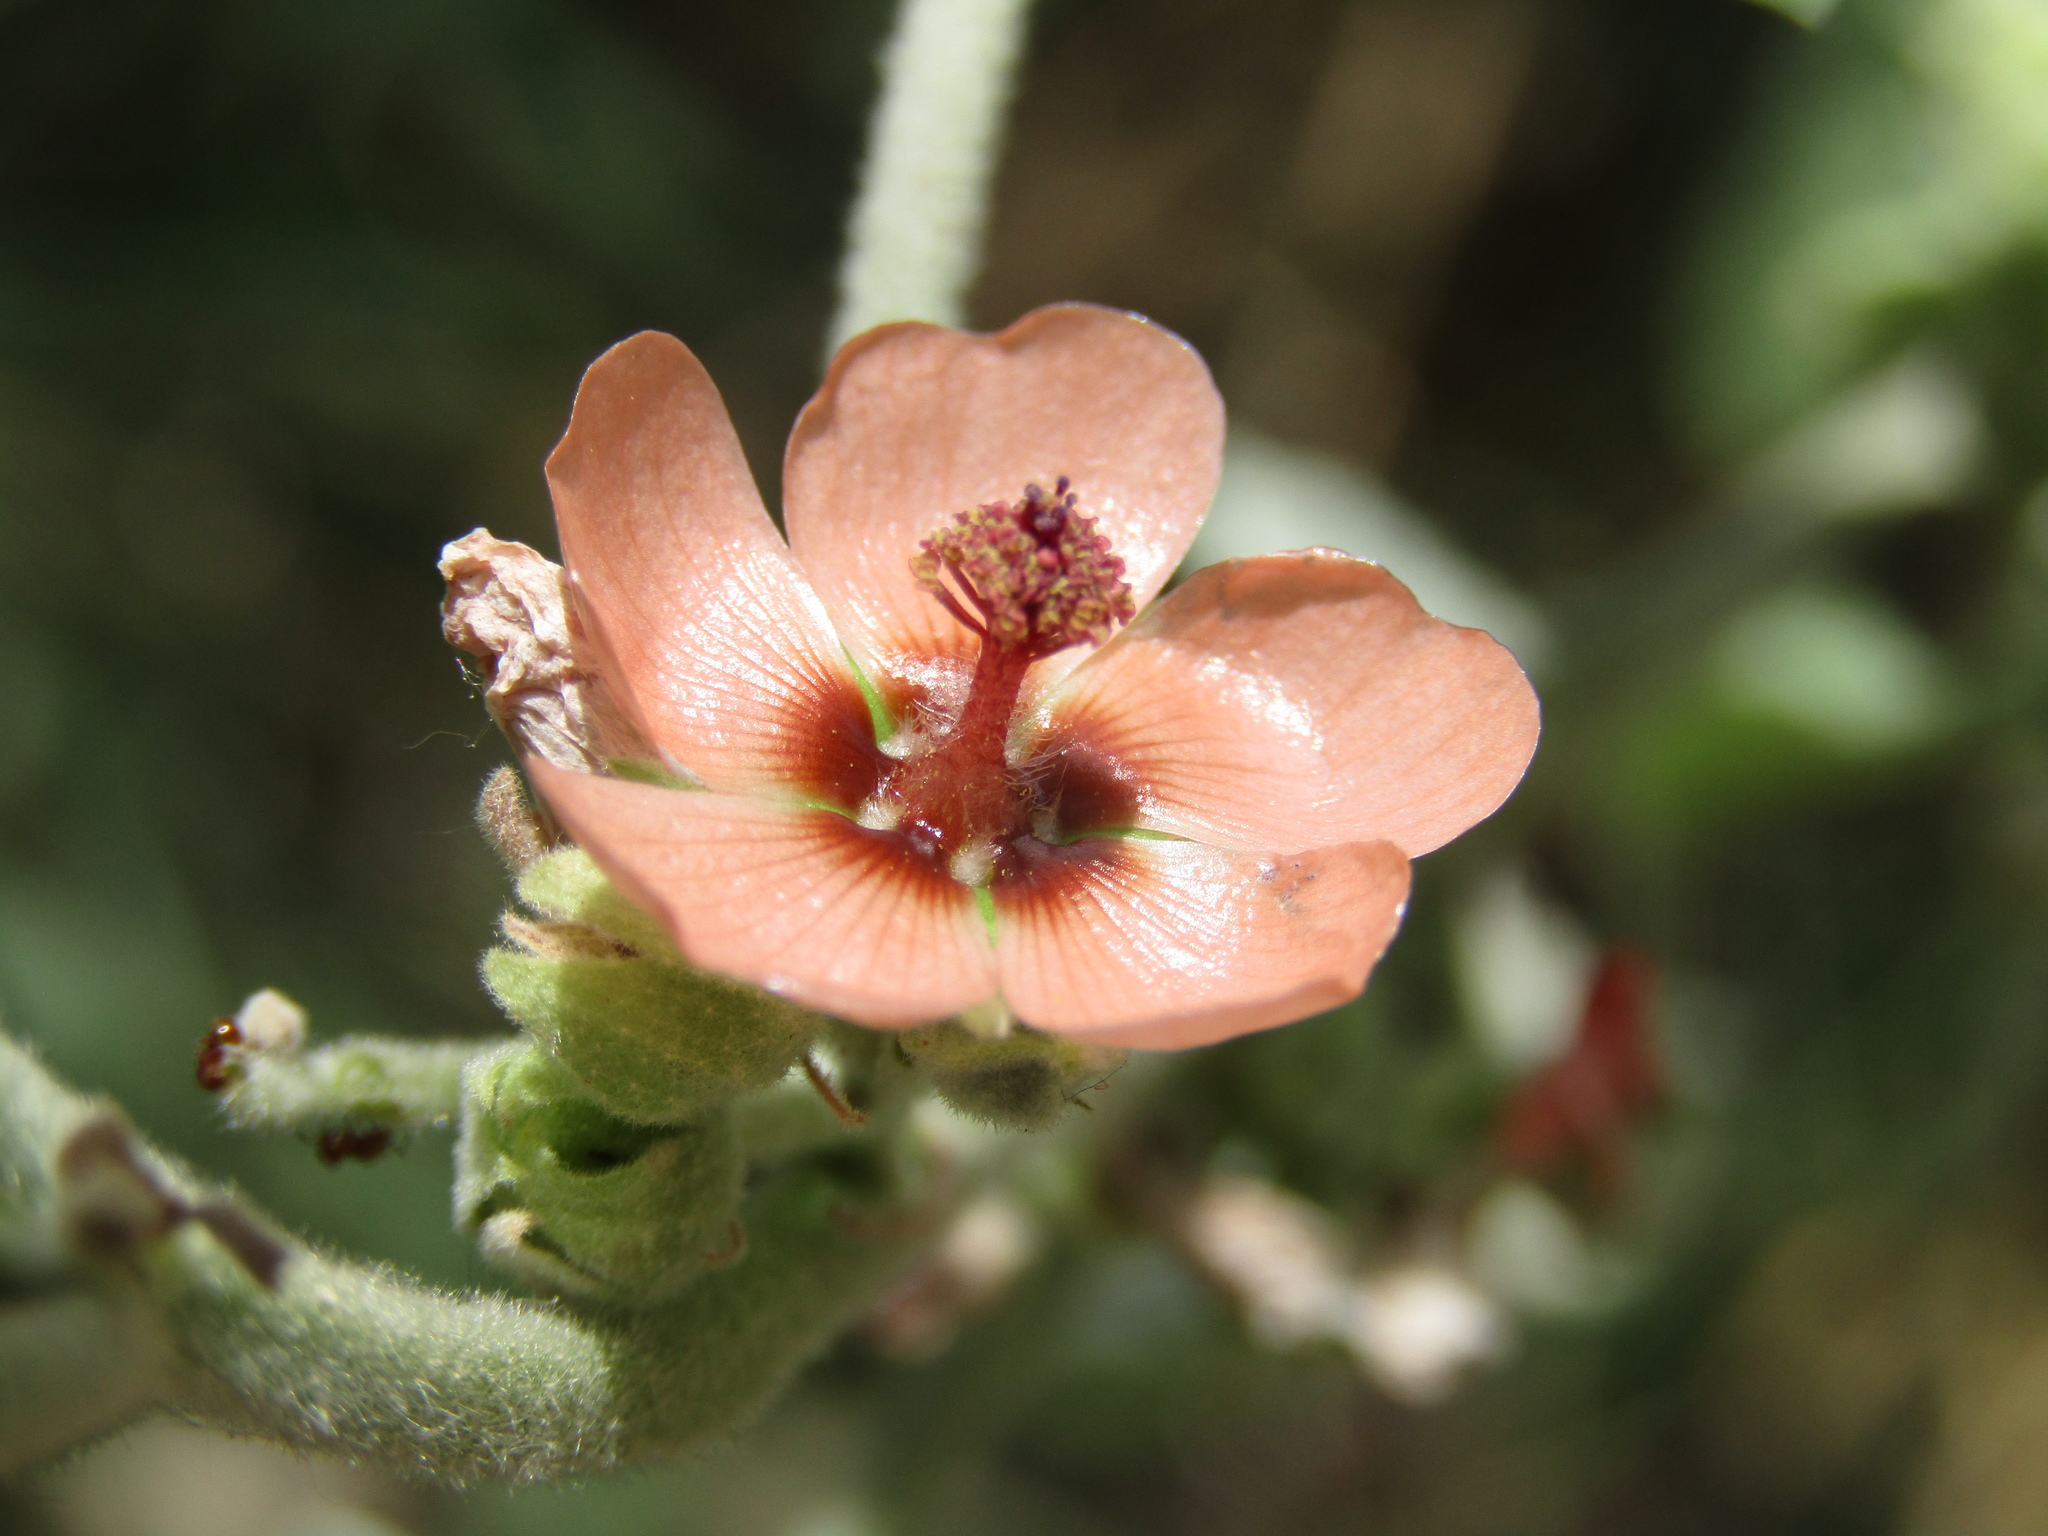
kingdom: Plantae
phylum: Tracheophyta
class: Magnoliopsida
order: Malvales
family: Malvaceae
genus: Sphaeralcea
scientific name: Sphaeralcea bonariensis
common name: Latin globemallow
